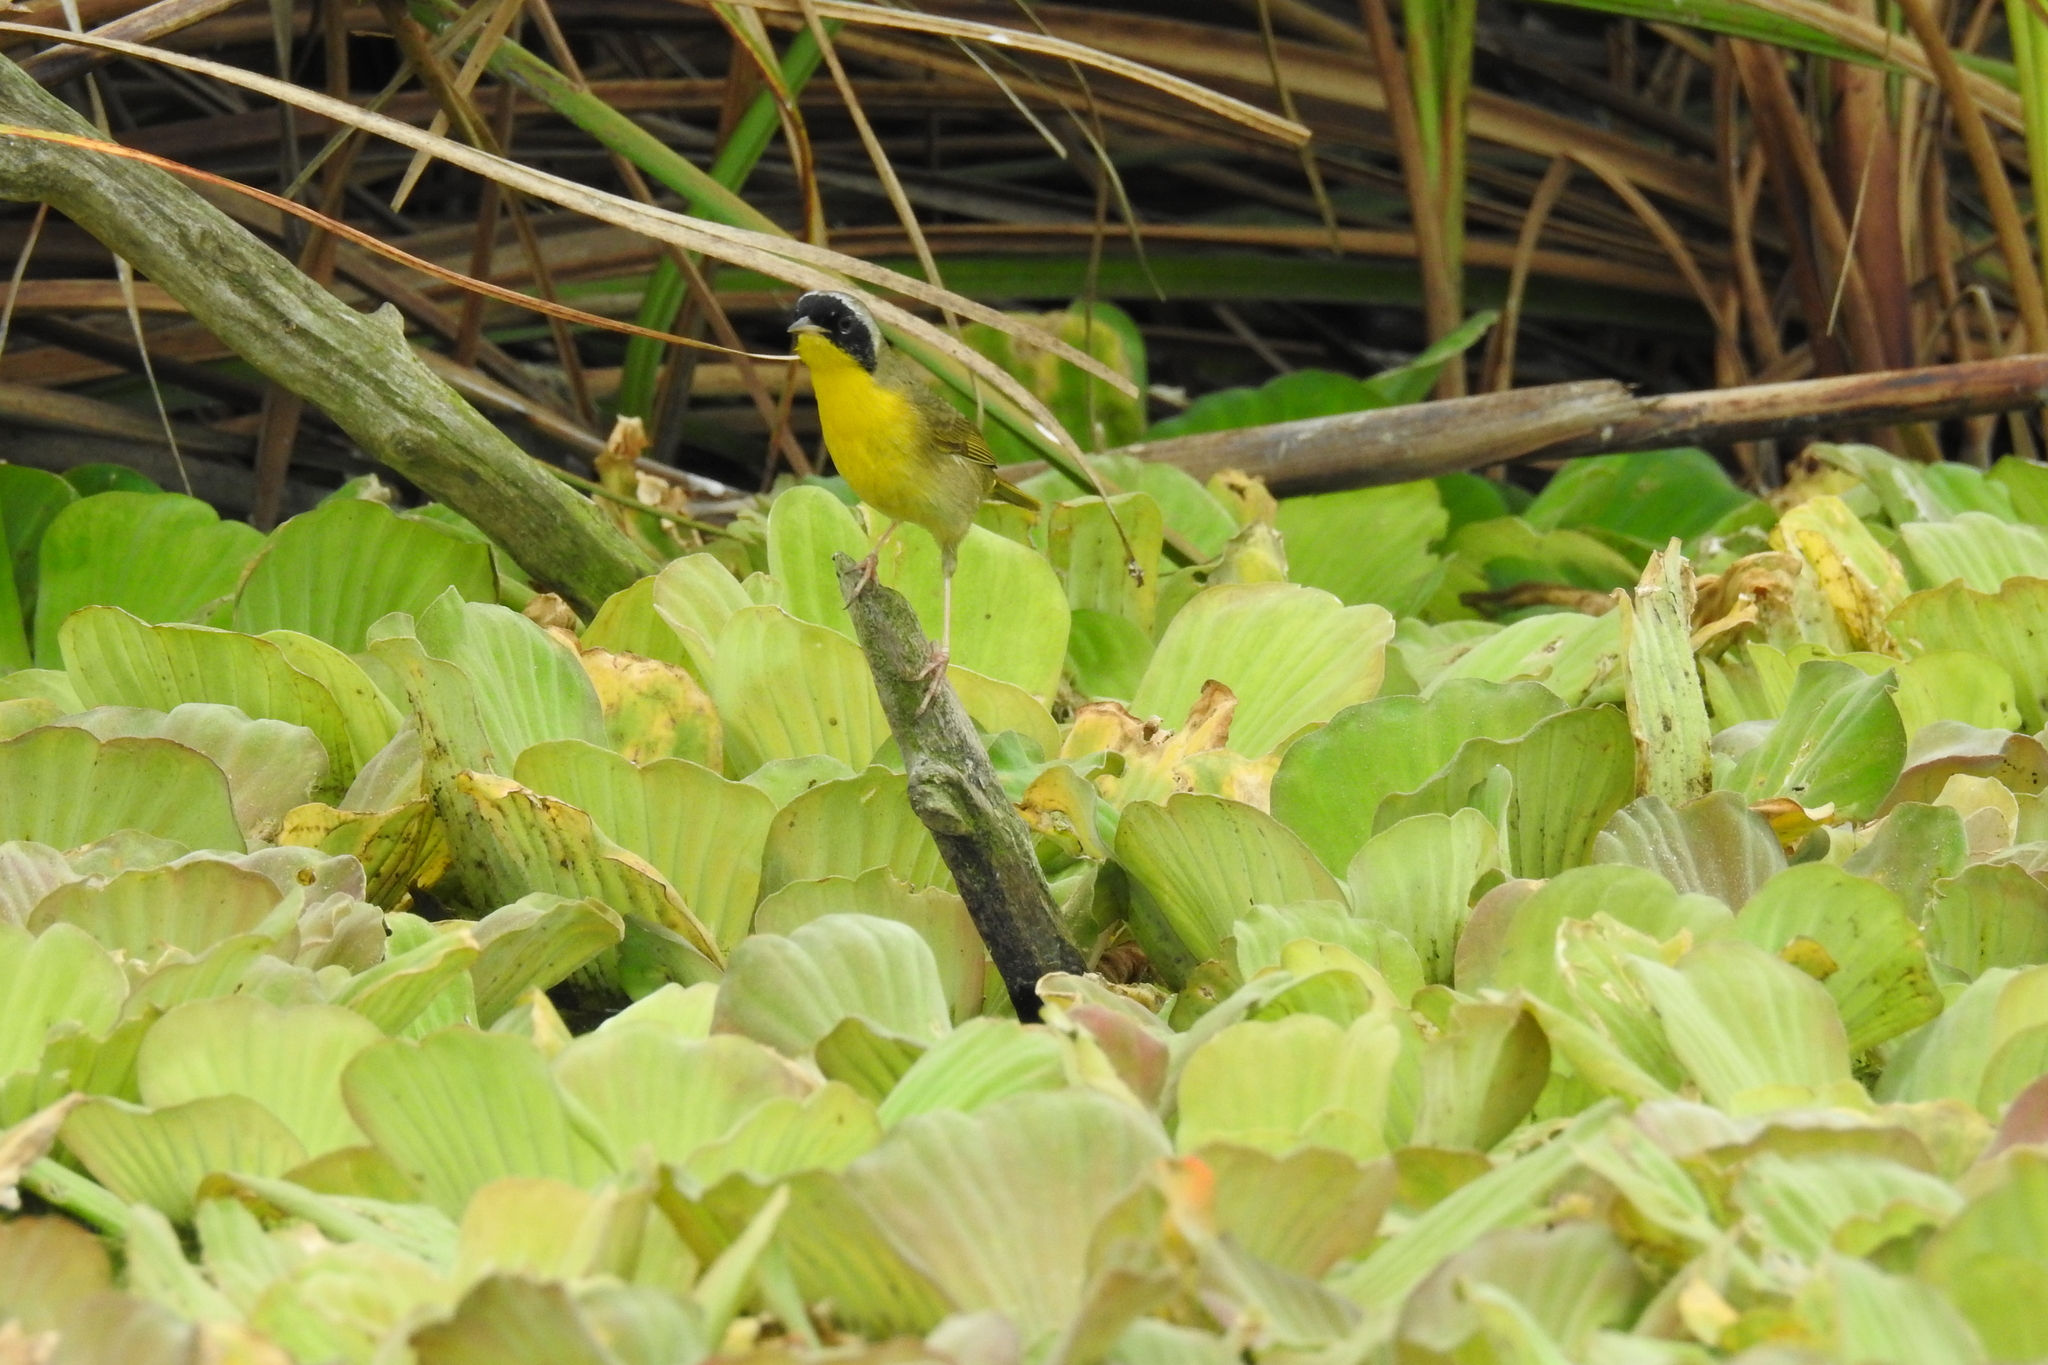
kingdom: Animalia
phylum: Chordata
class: Aves
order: Passeriformes
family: Parulidae
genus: Geothlypis
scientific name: Geothlypis trichas
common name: Common yellowthroat
